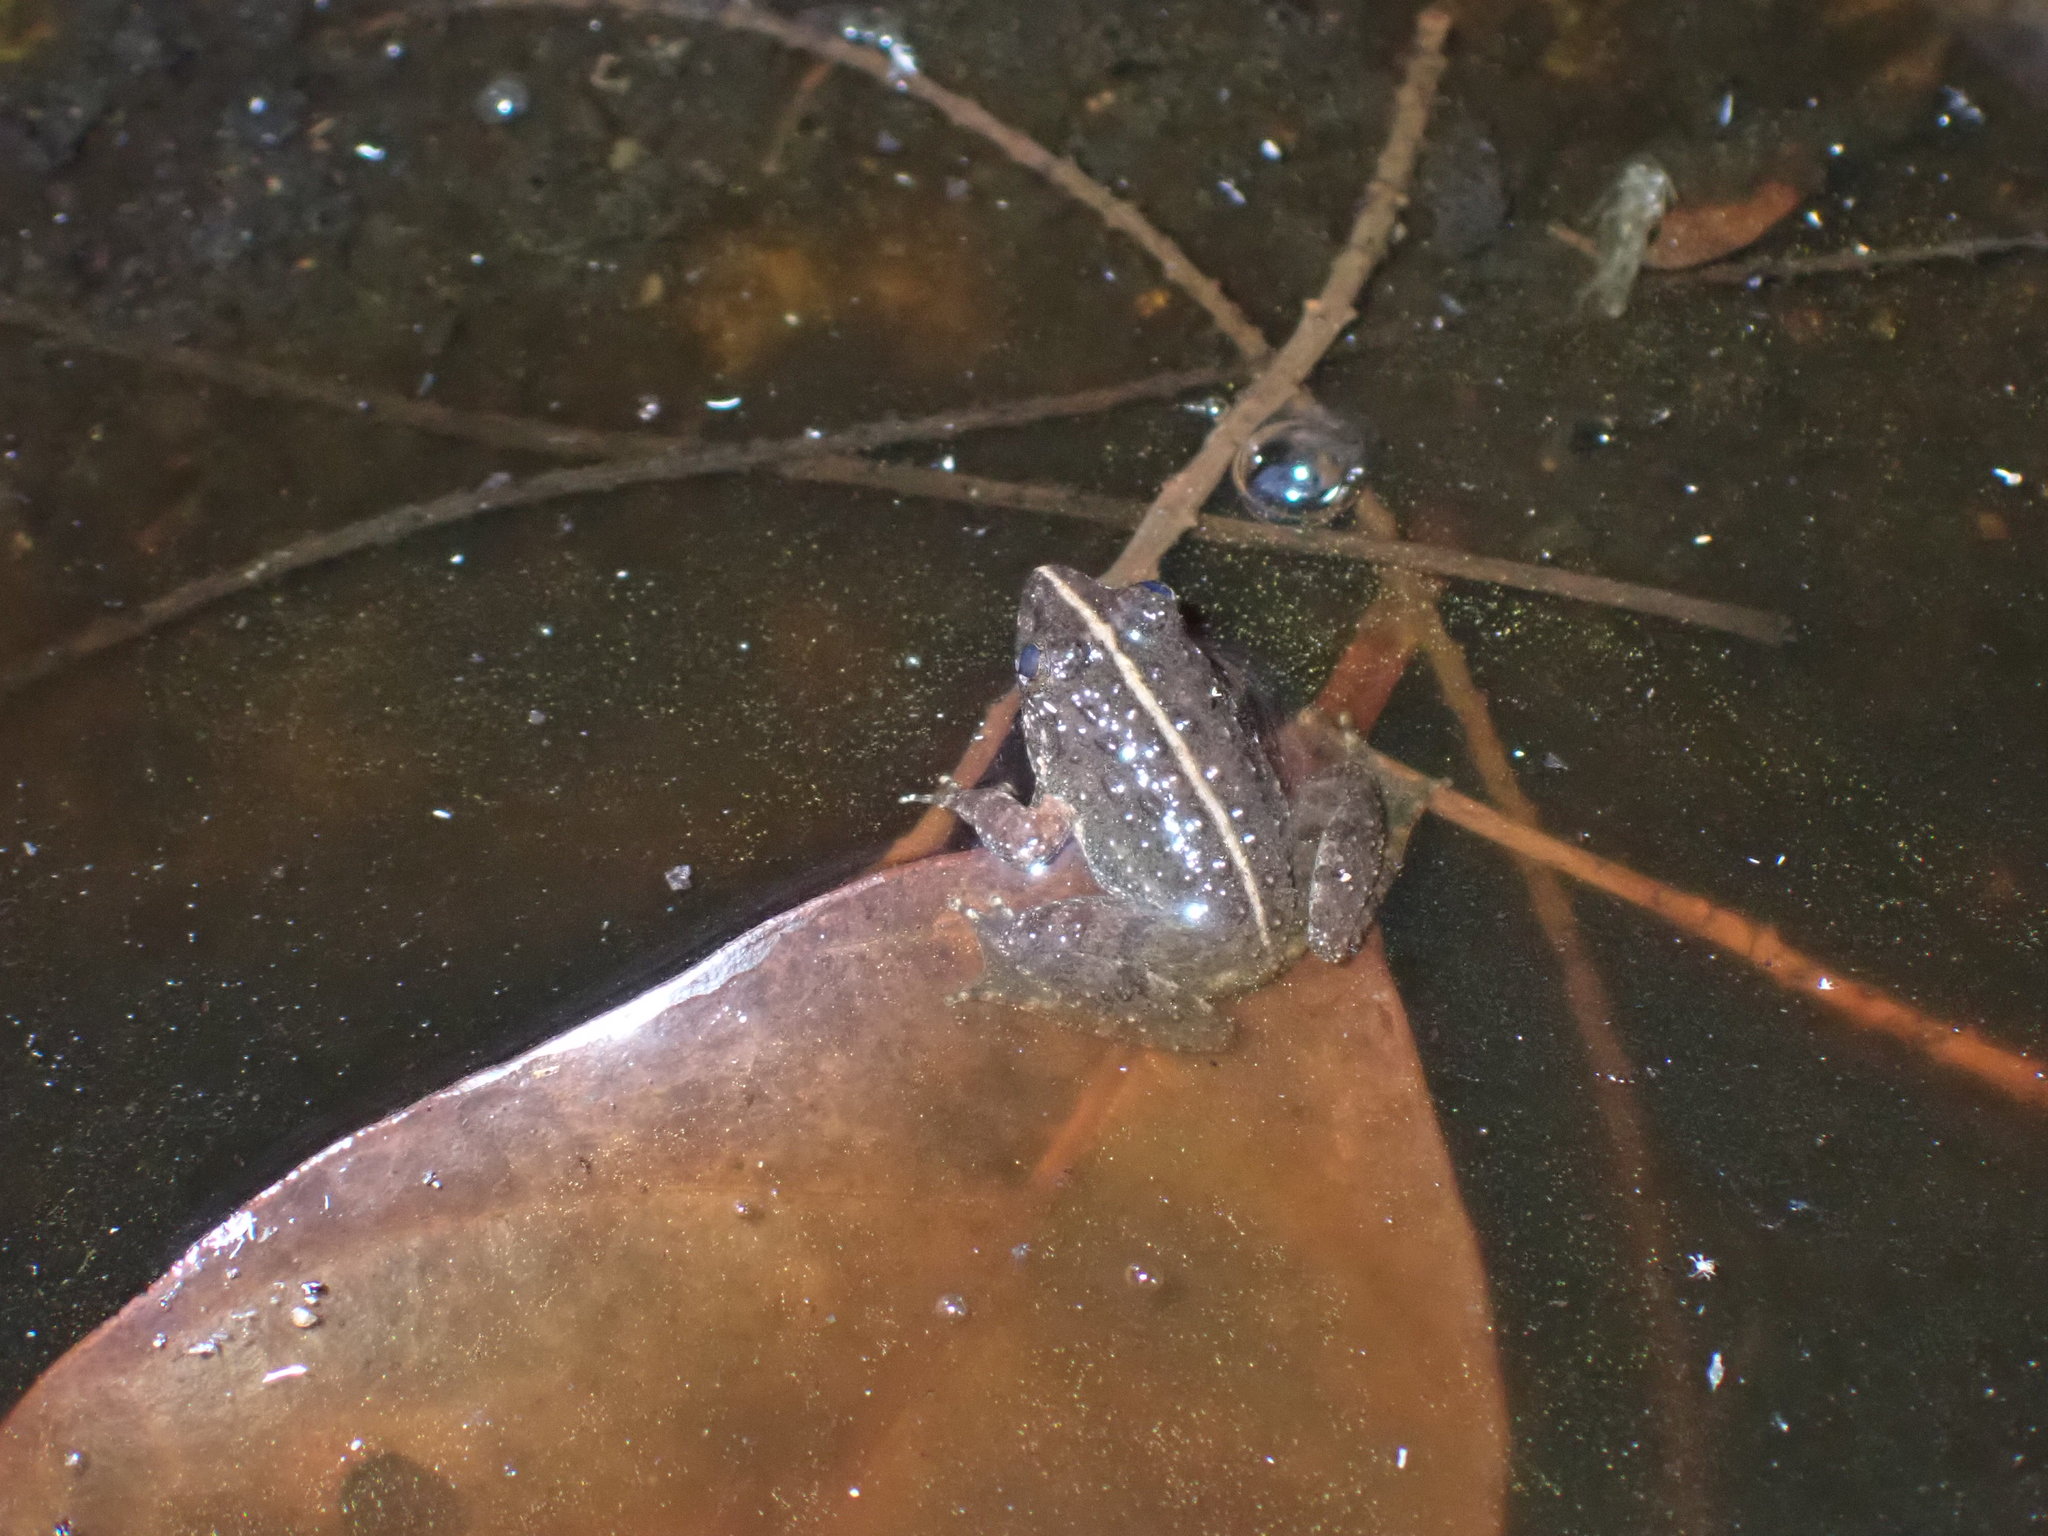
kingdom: Animalia
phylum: Chordata
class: Amphibia
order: Anura
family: Dicroglossidae
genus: Fejervarya
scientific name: Fejervarya limnocharis
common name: Asian grass frog/common pond frog/field frog/grass frog/indian rice frog
